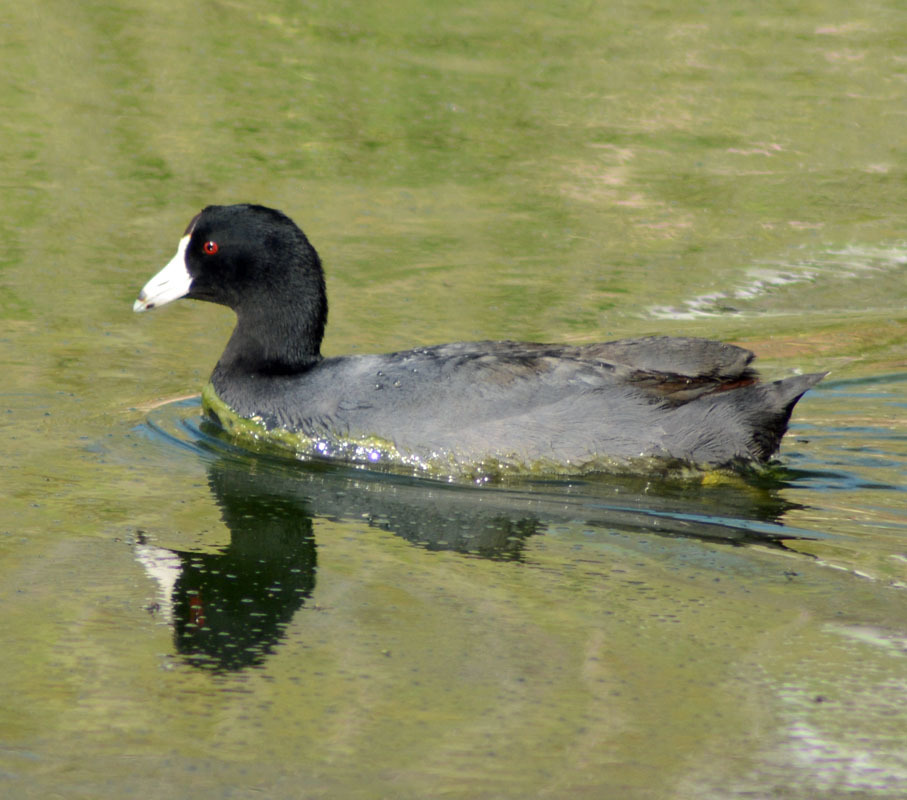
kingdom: Animalia
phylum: Chordata
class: Aves
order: Gruiformes
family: Rallidae
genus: Fulica
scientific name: Fulica americana
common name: American coot
